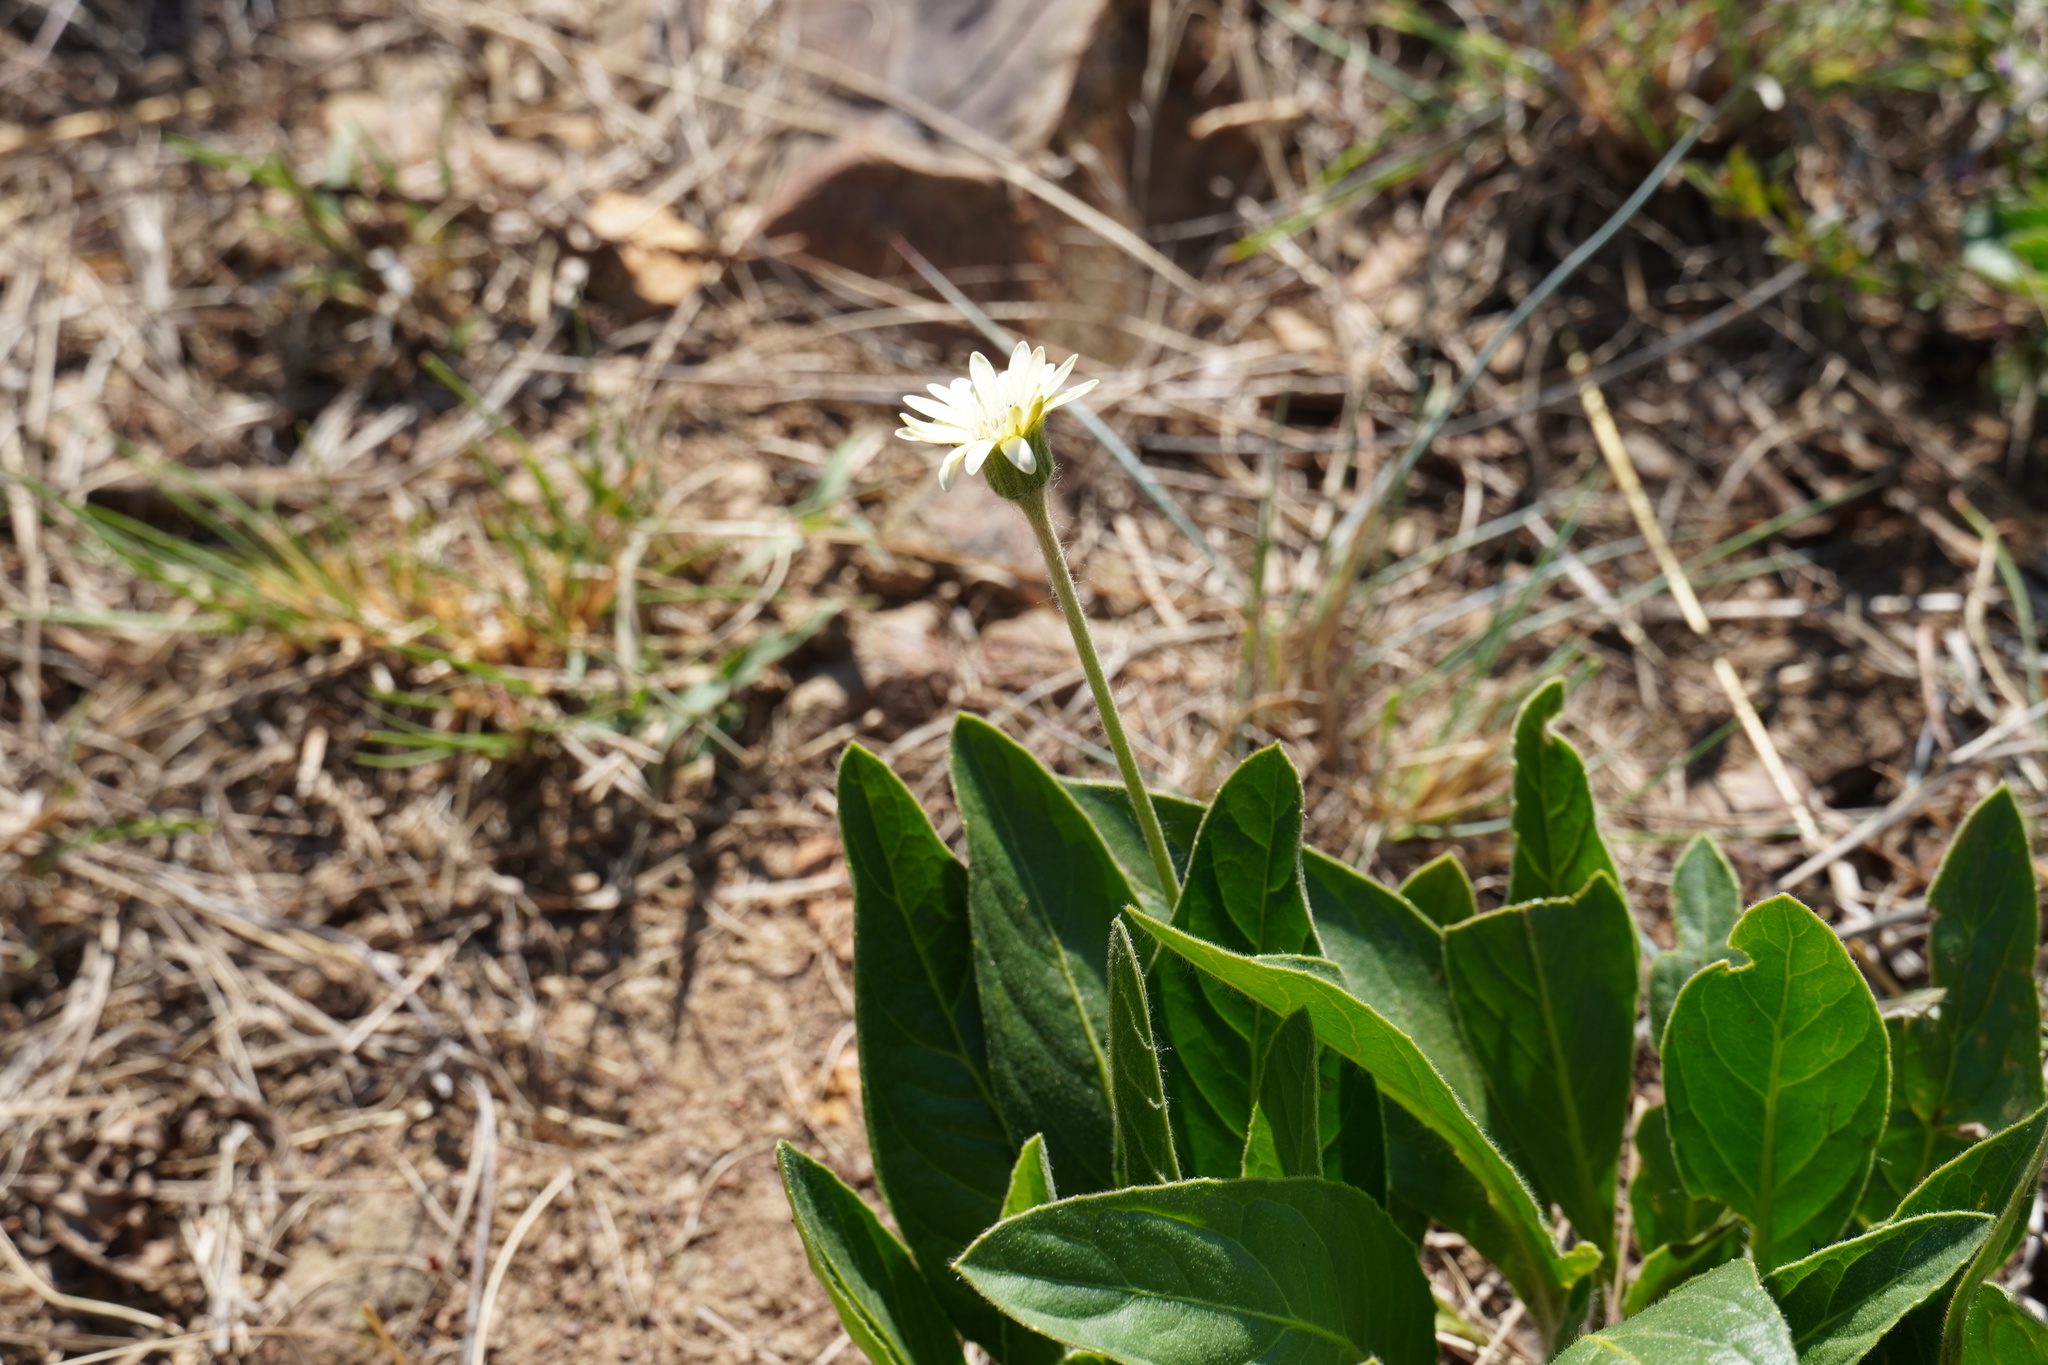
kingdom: Plantae
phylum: Tracheophyta
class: Magnoliopsida
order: Asterales
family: Asteraceae
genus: Gerbera
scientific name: Gerbera viridifolia
